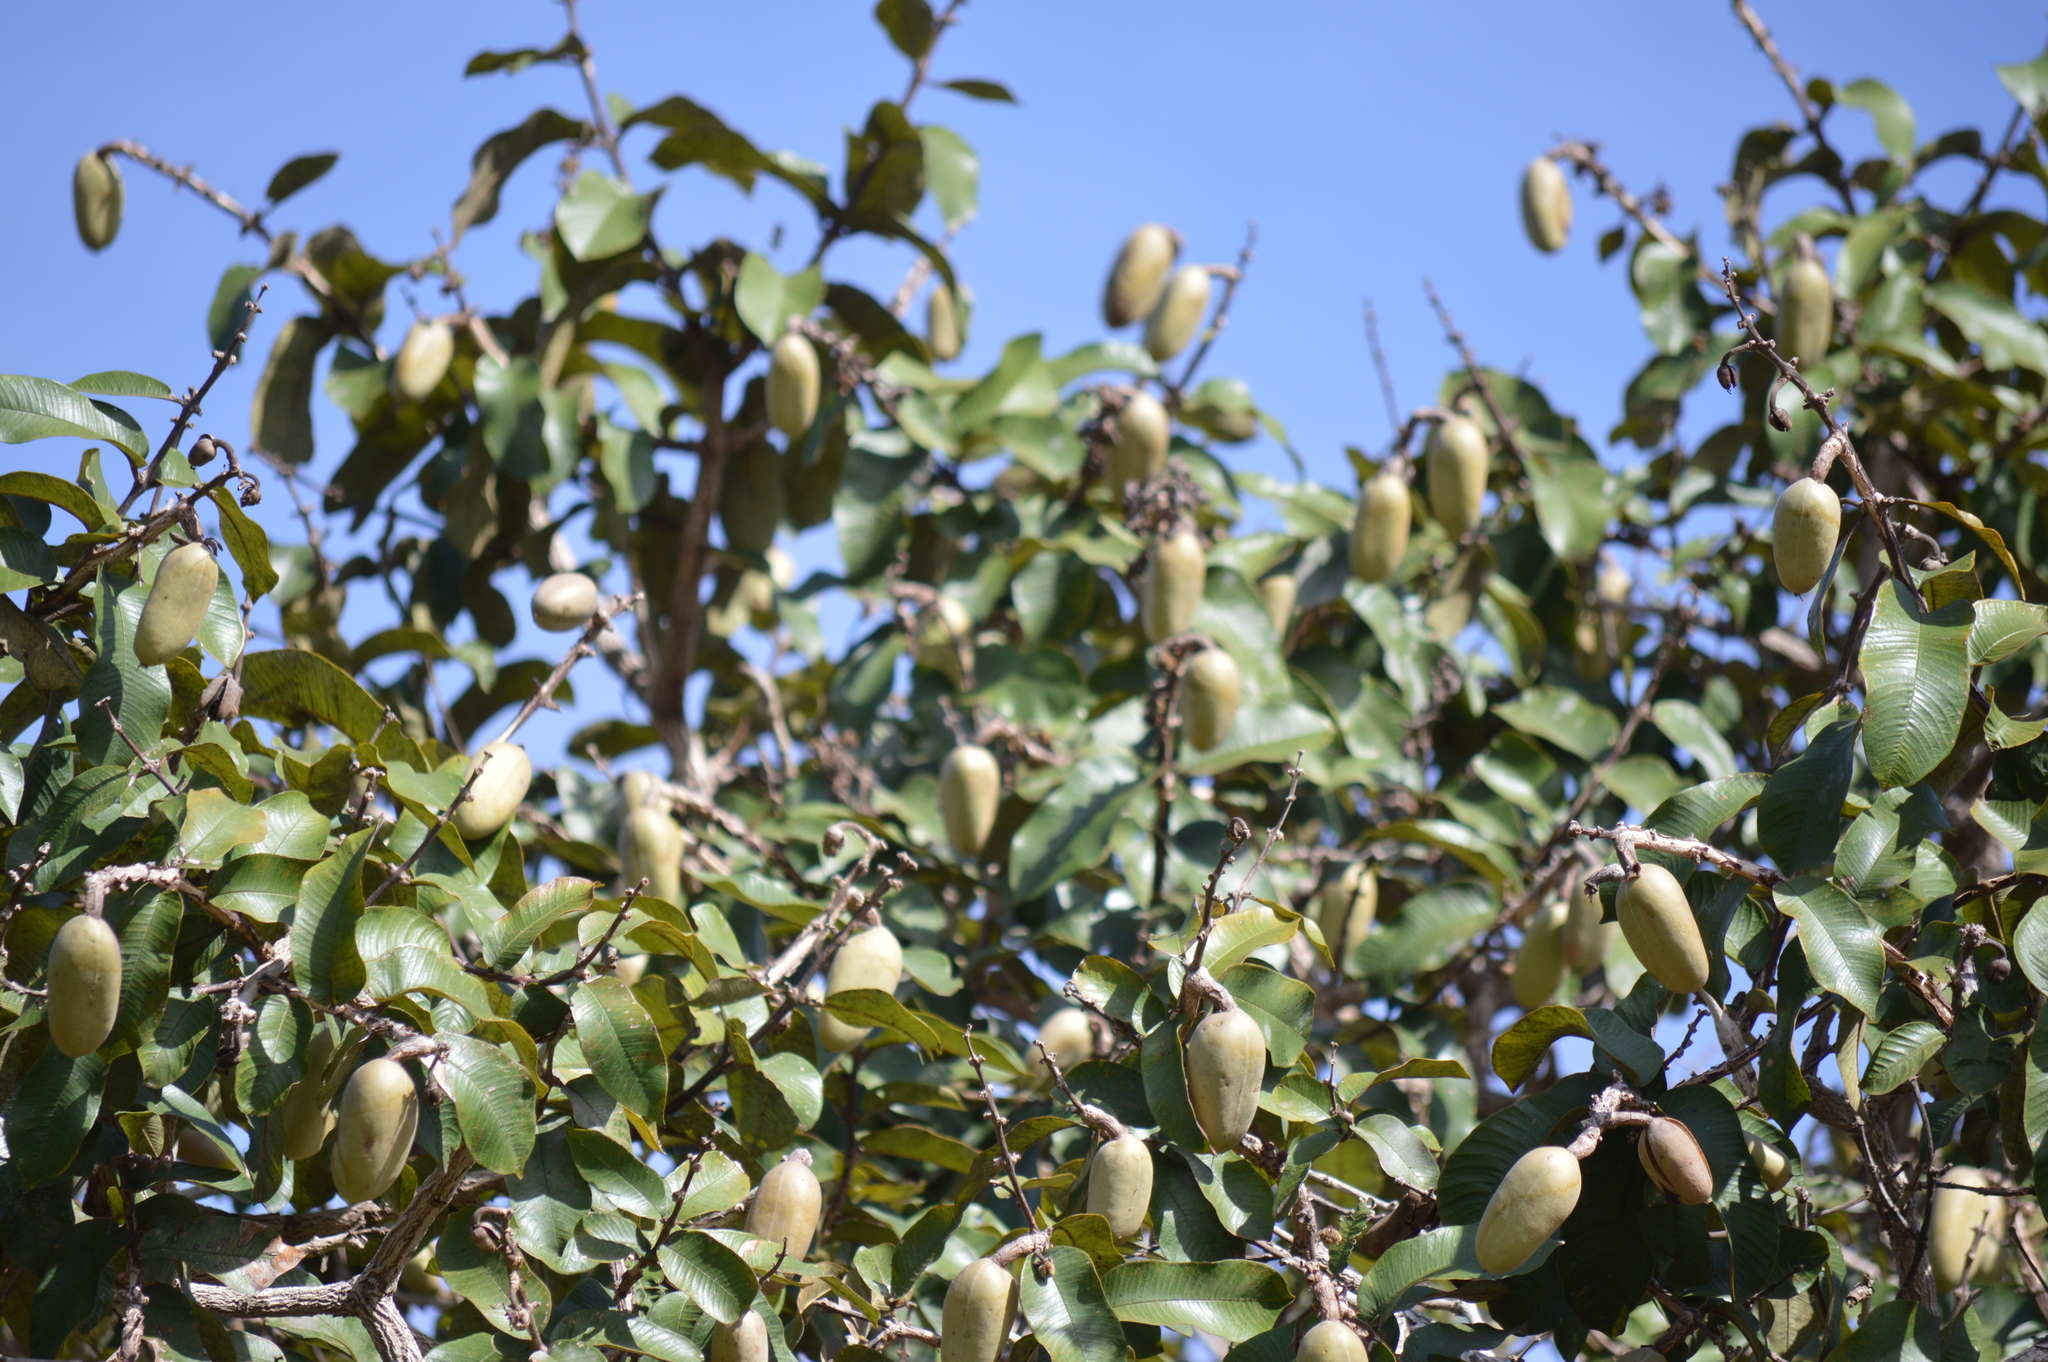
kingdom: Plantae
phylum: Tracheophyta
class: Magnoliopsida
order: Myrtales
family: Vochysiaceae
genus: Qualea
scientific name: Qualea grandiflora
